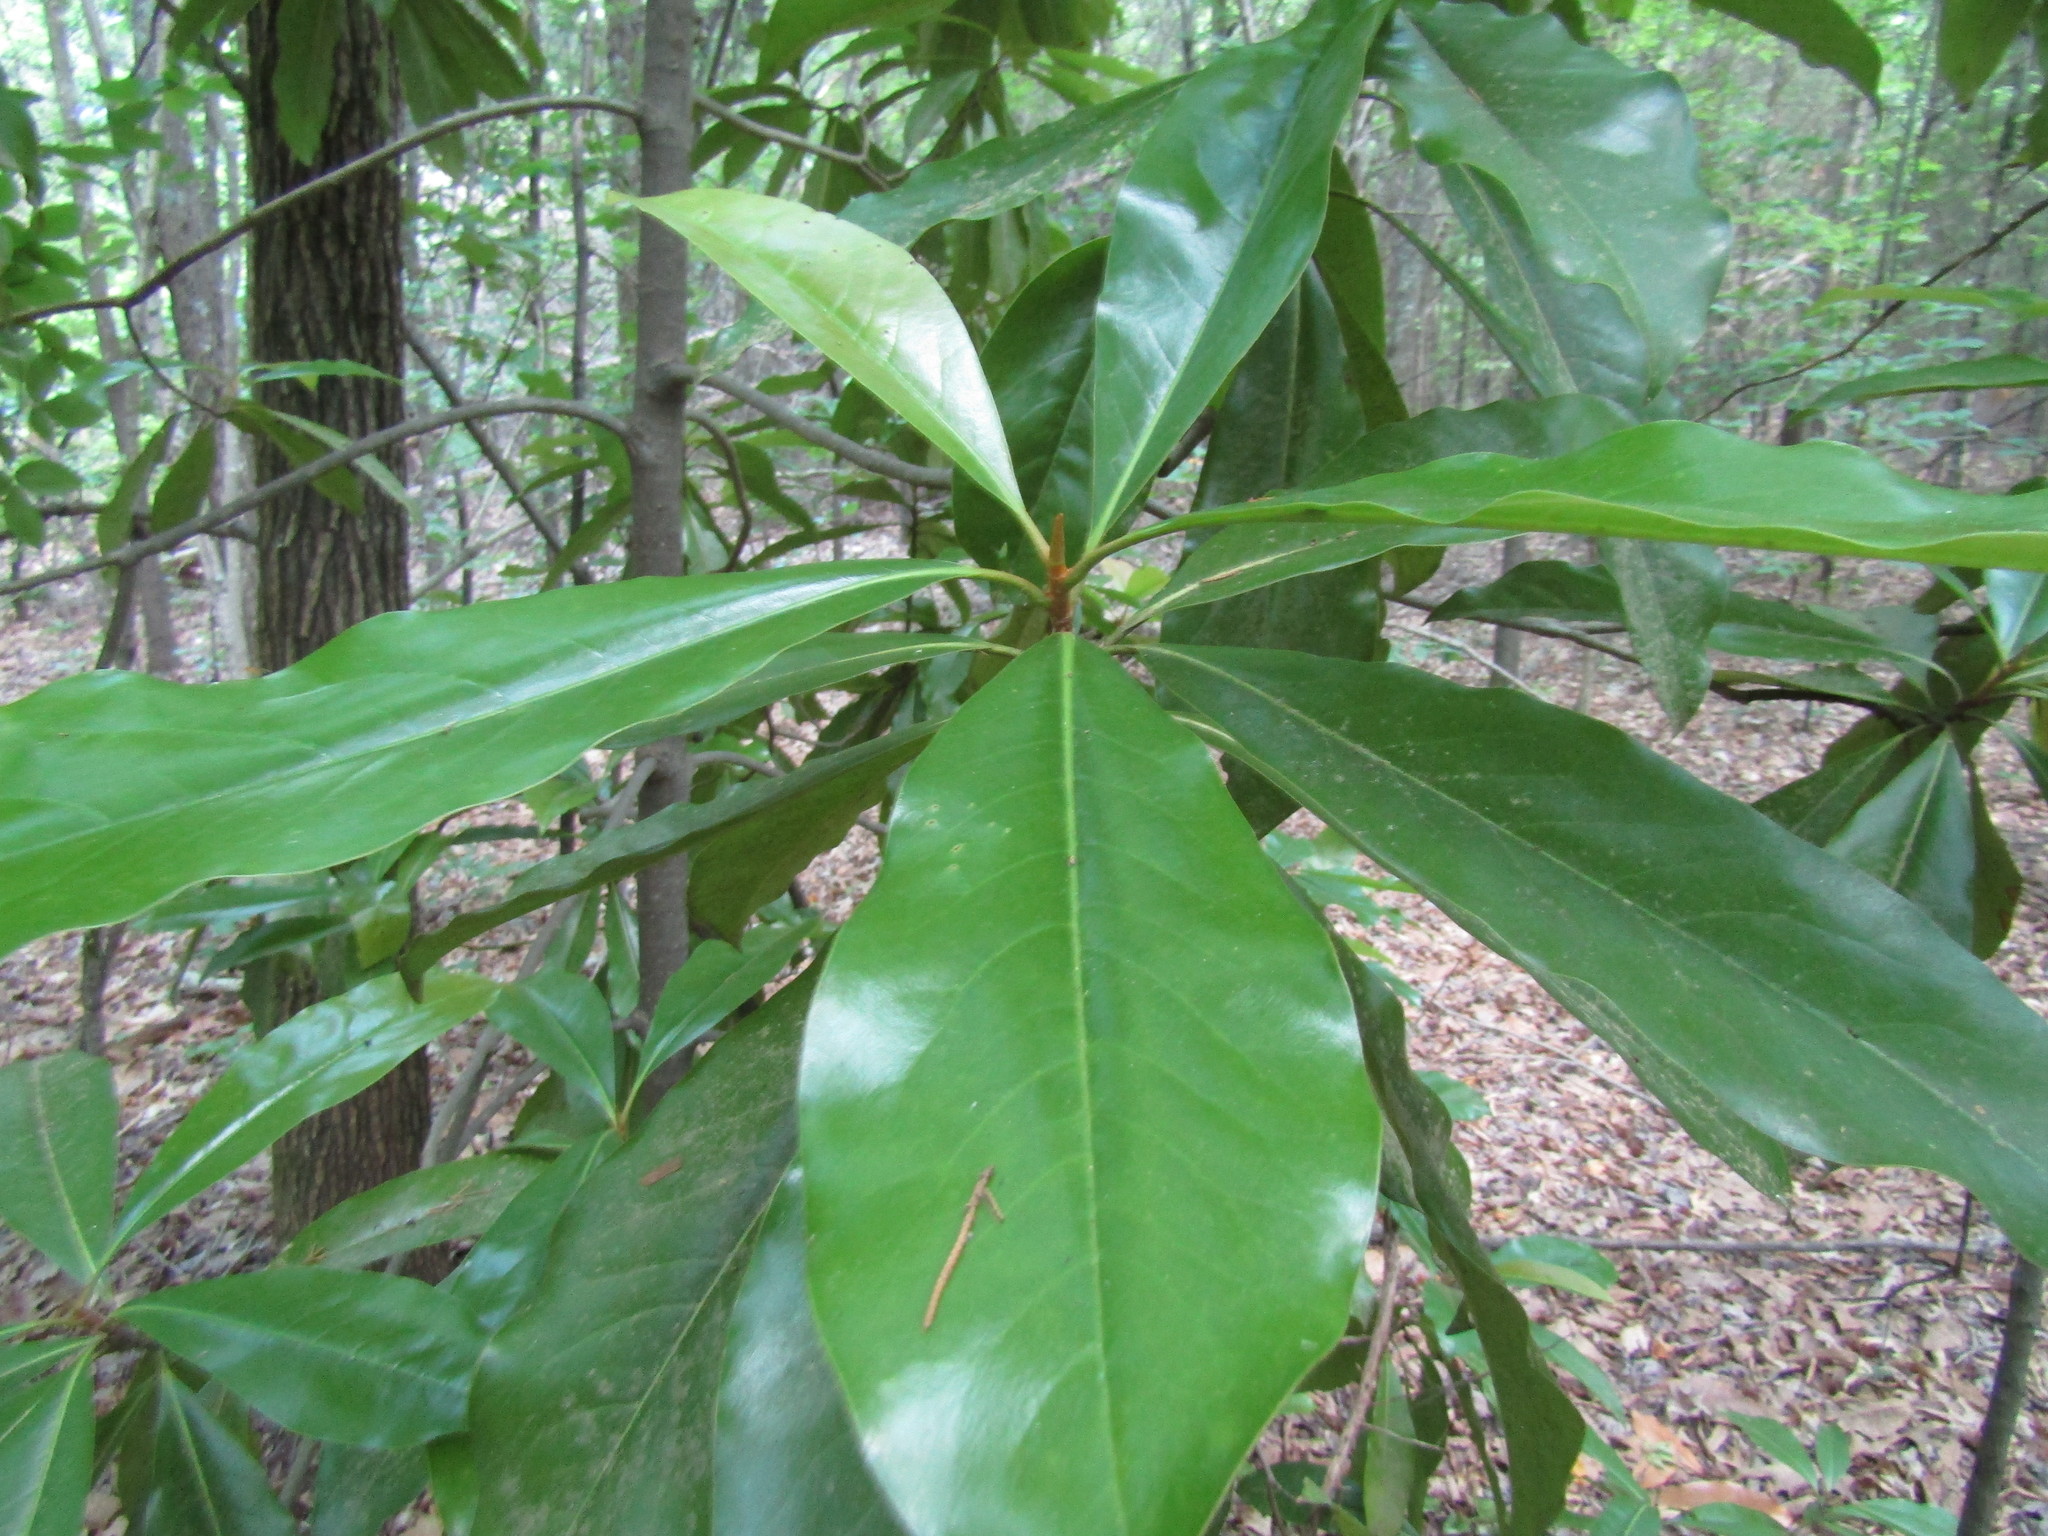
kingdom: Plantae
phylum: Tracheophyta
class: Magnoliopsida
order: Magnoliales
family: Magnoliaceae
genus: Magnolia
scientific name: Magnolia grandiflora
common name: Southern magnolia
